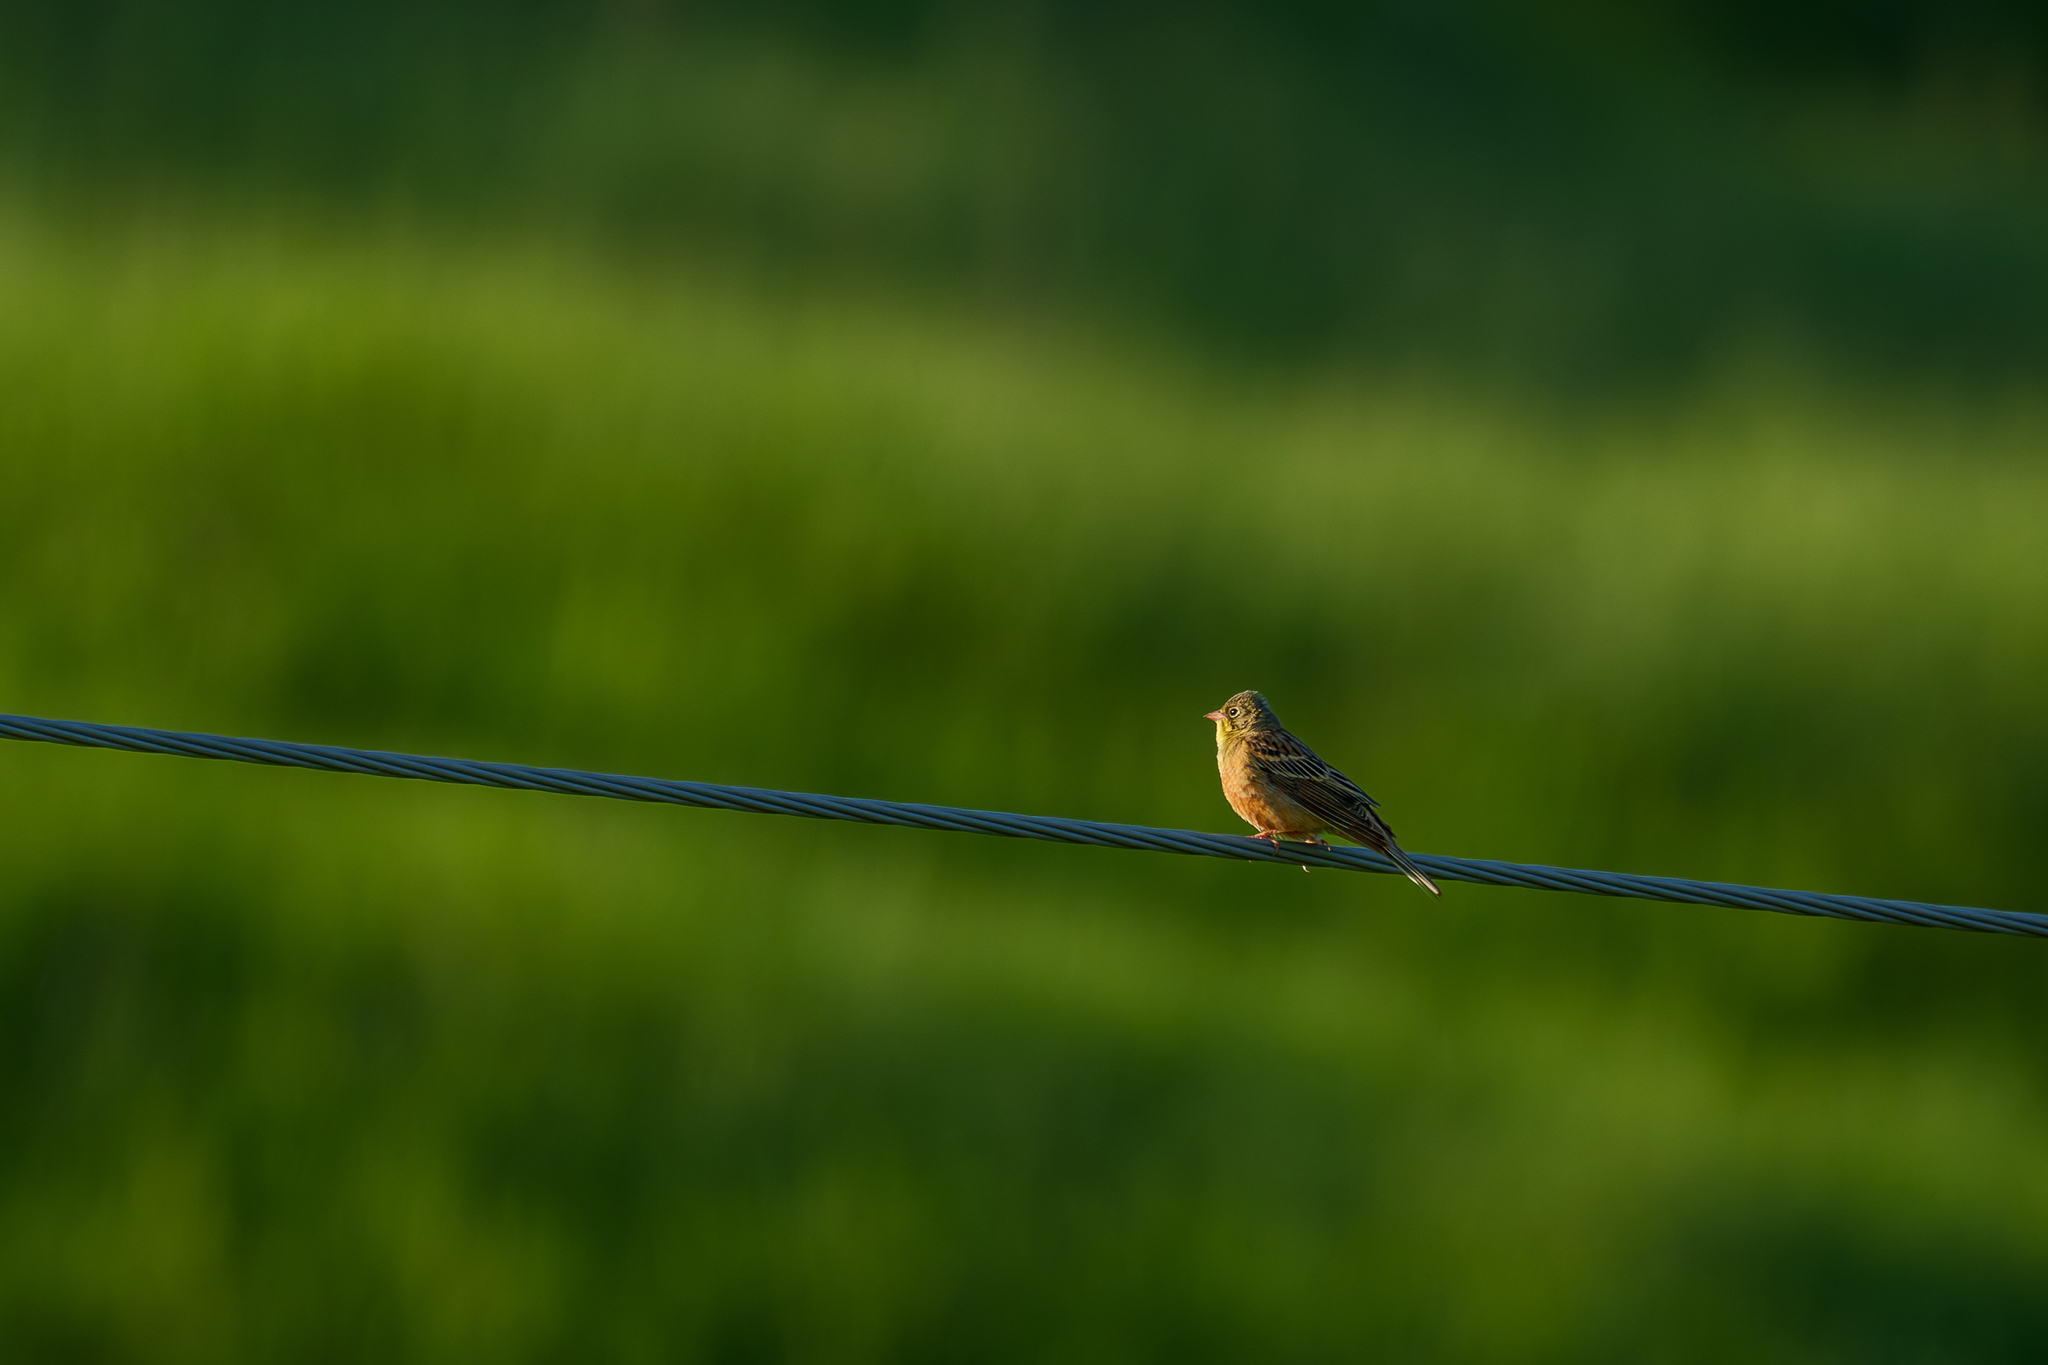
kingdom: Animalia
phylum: Chordata
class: Aves
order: Passeriformes
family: Emberizidae
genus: Emberiza
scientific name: Emberiza hortulana
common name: Ortolan bunting
